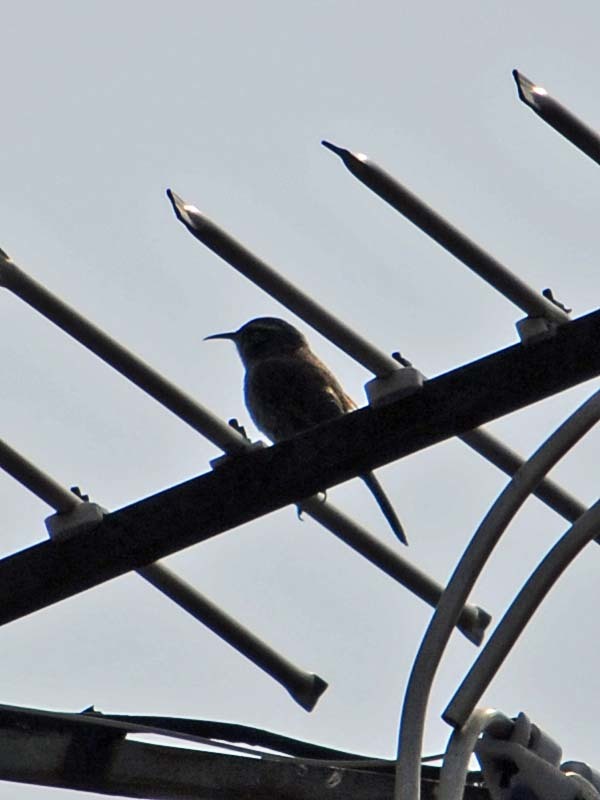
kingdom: Animalia
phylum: Chordata
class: Aves
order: Passeriformes
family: Troglodytidae
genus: Thryomanes
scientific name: Thryomanes bewickii
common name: Bewick's wren
